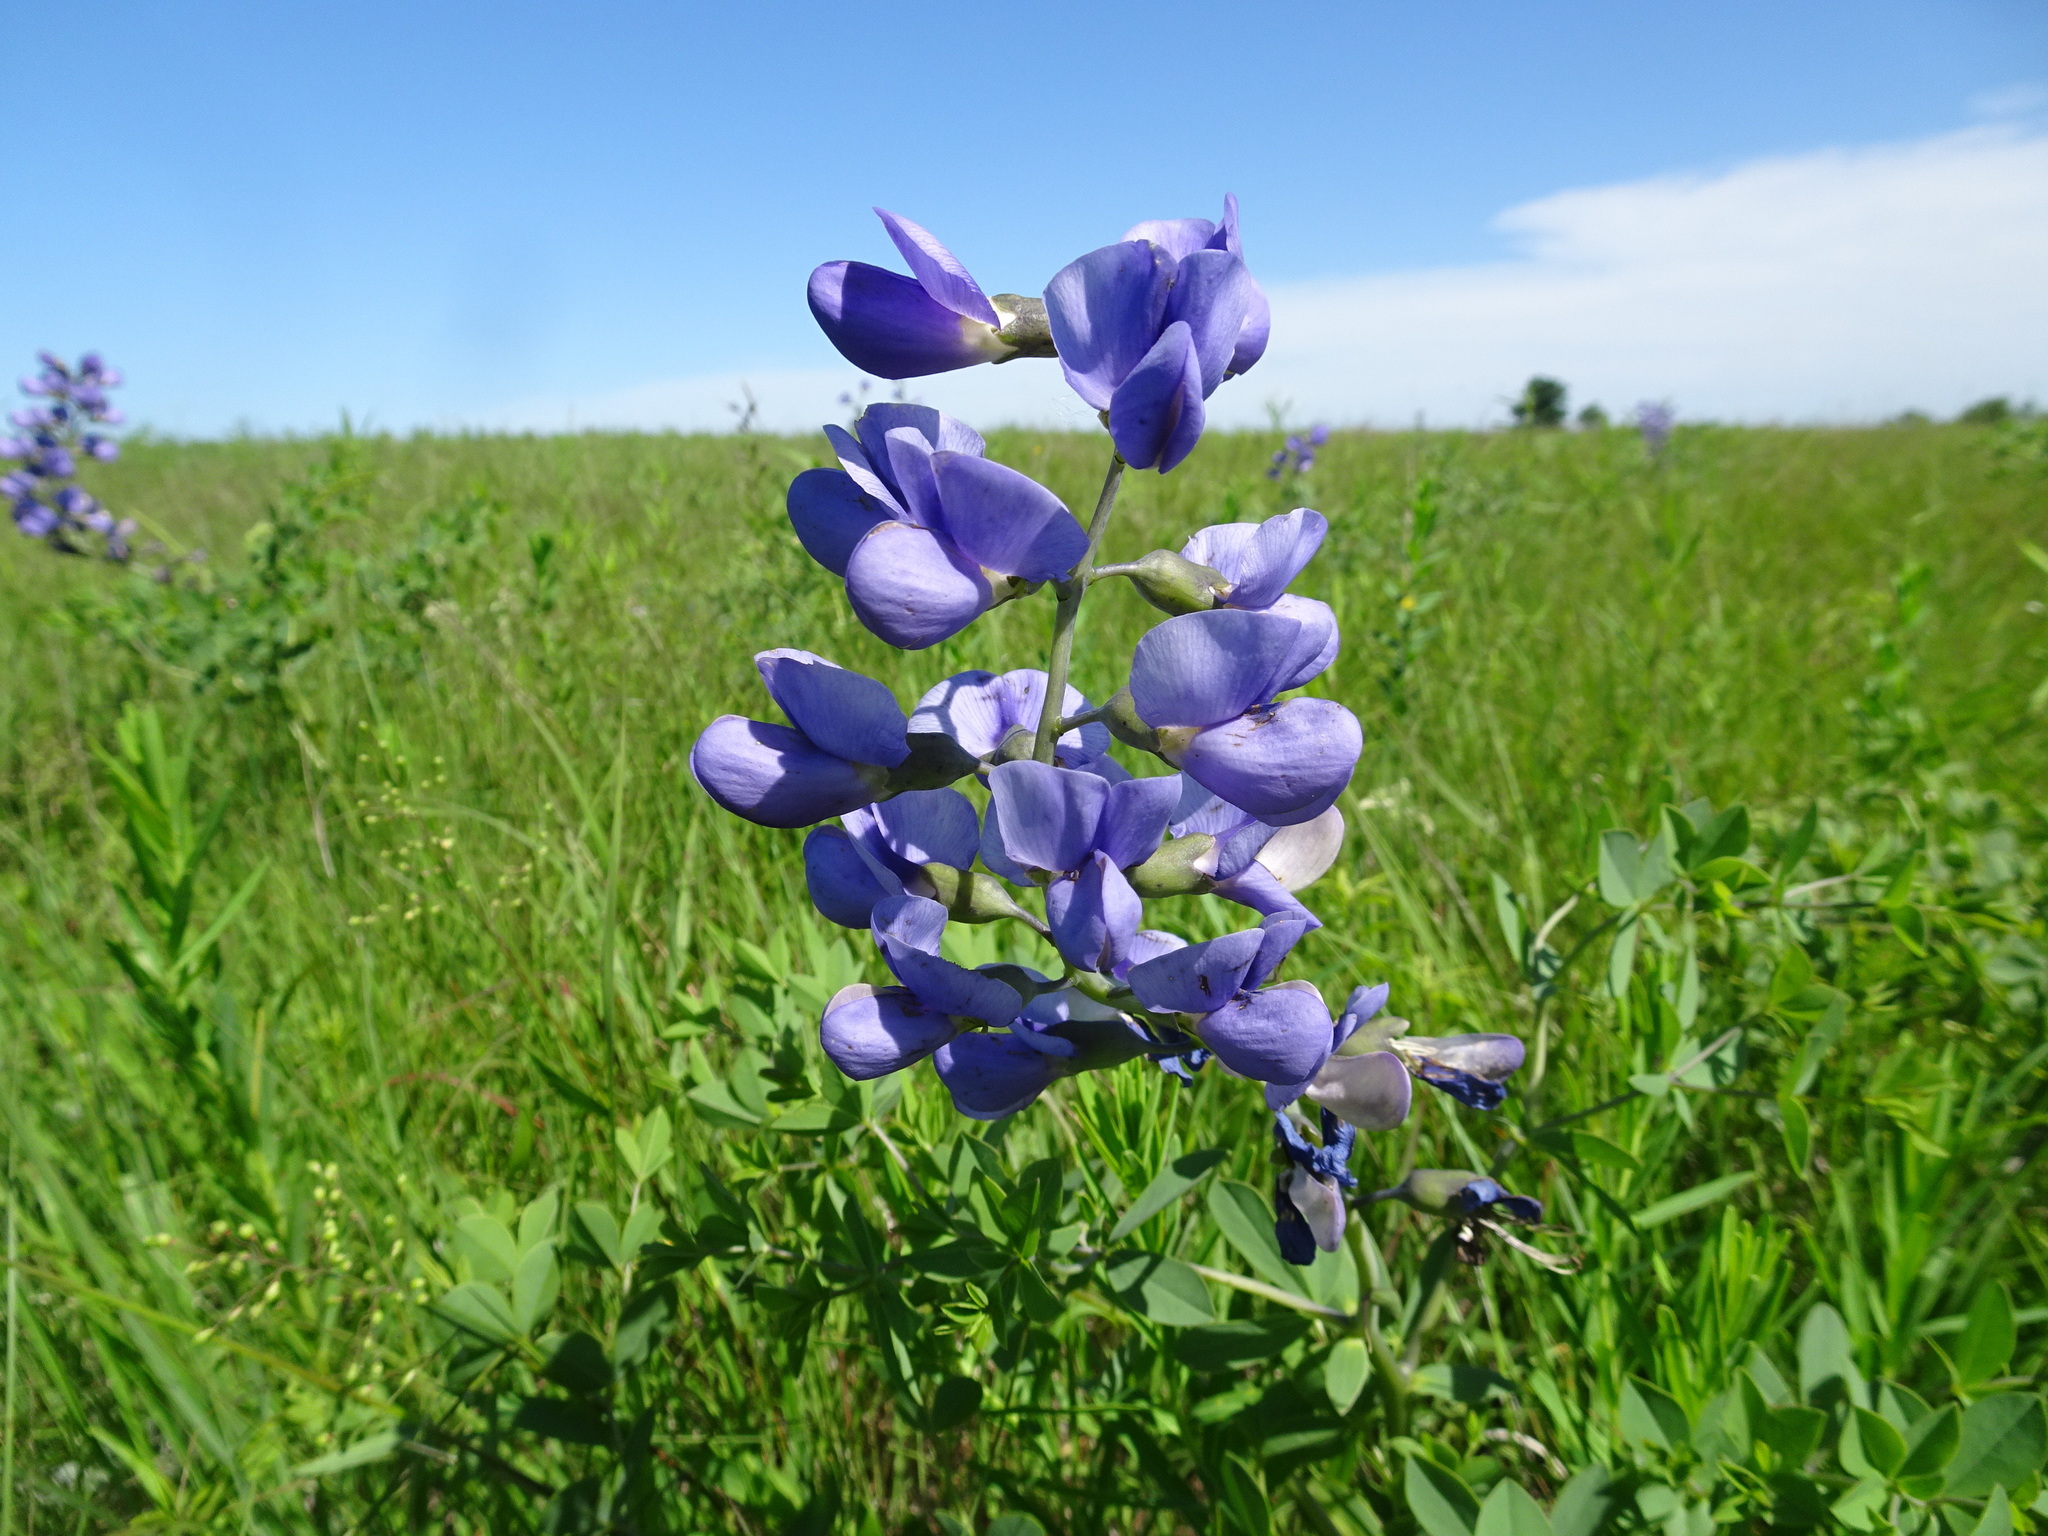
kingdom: Plantae
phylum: Tracheophyta
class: Magnoliopsida
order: Fabales
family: Fabaceae
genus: Baptisia
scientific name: Baptisia australis
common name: Blue false indigo
